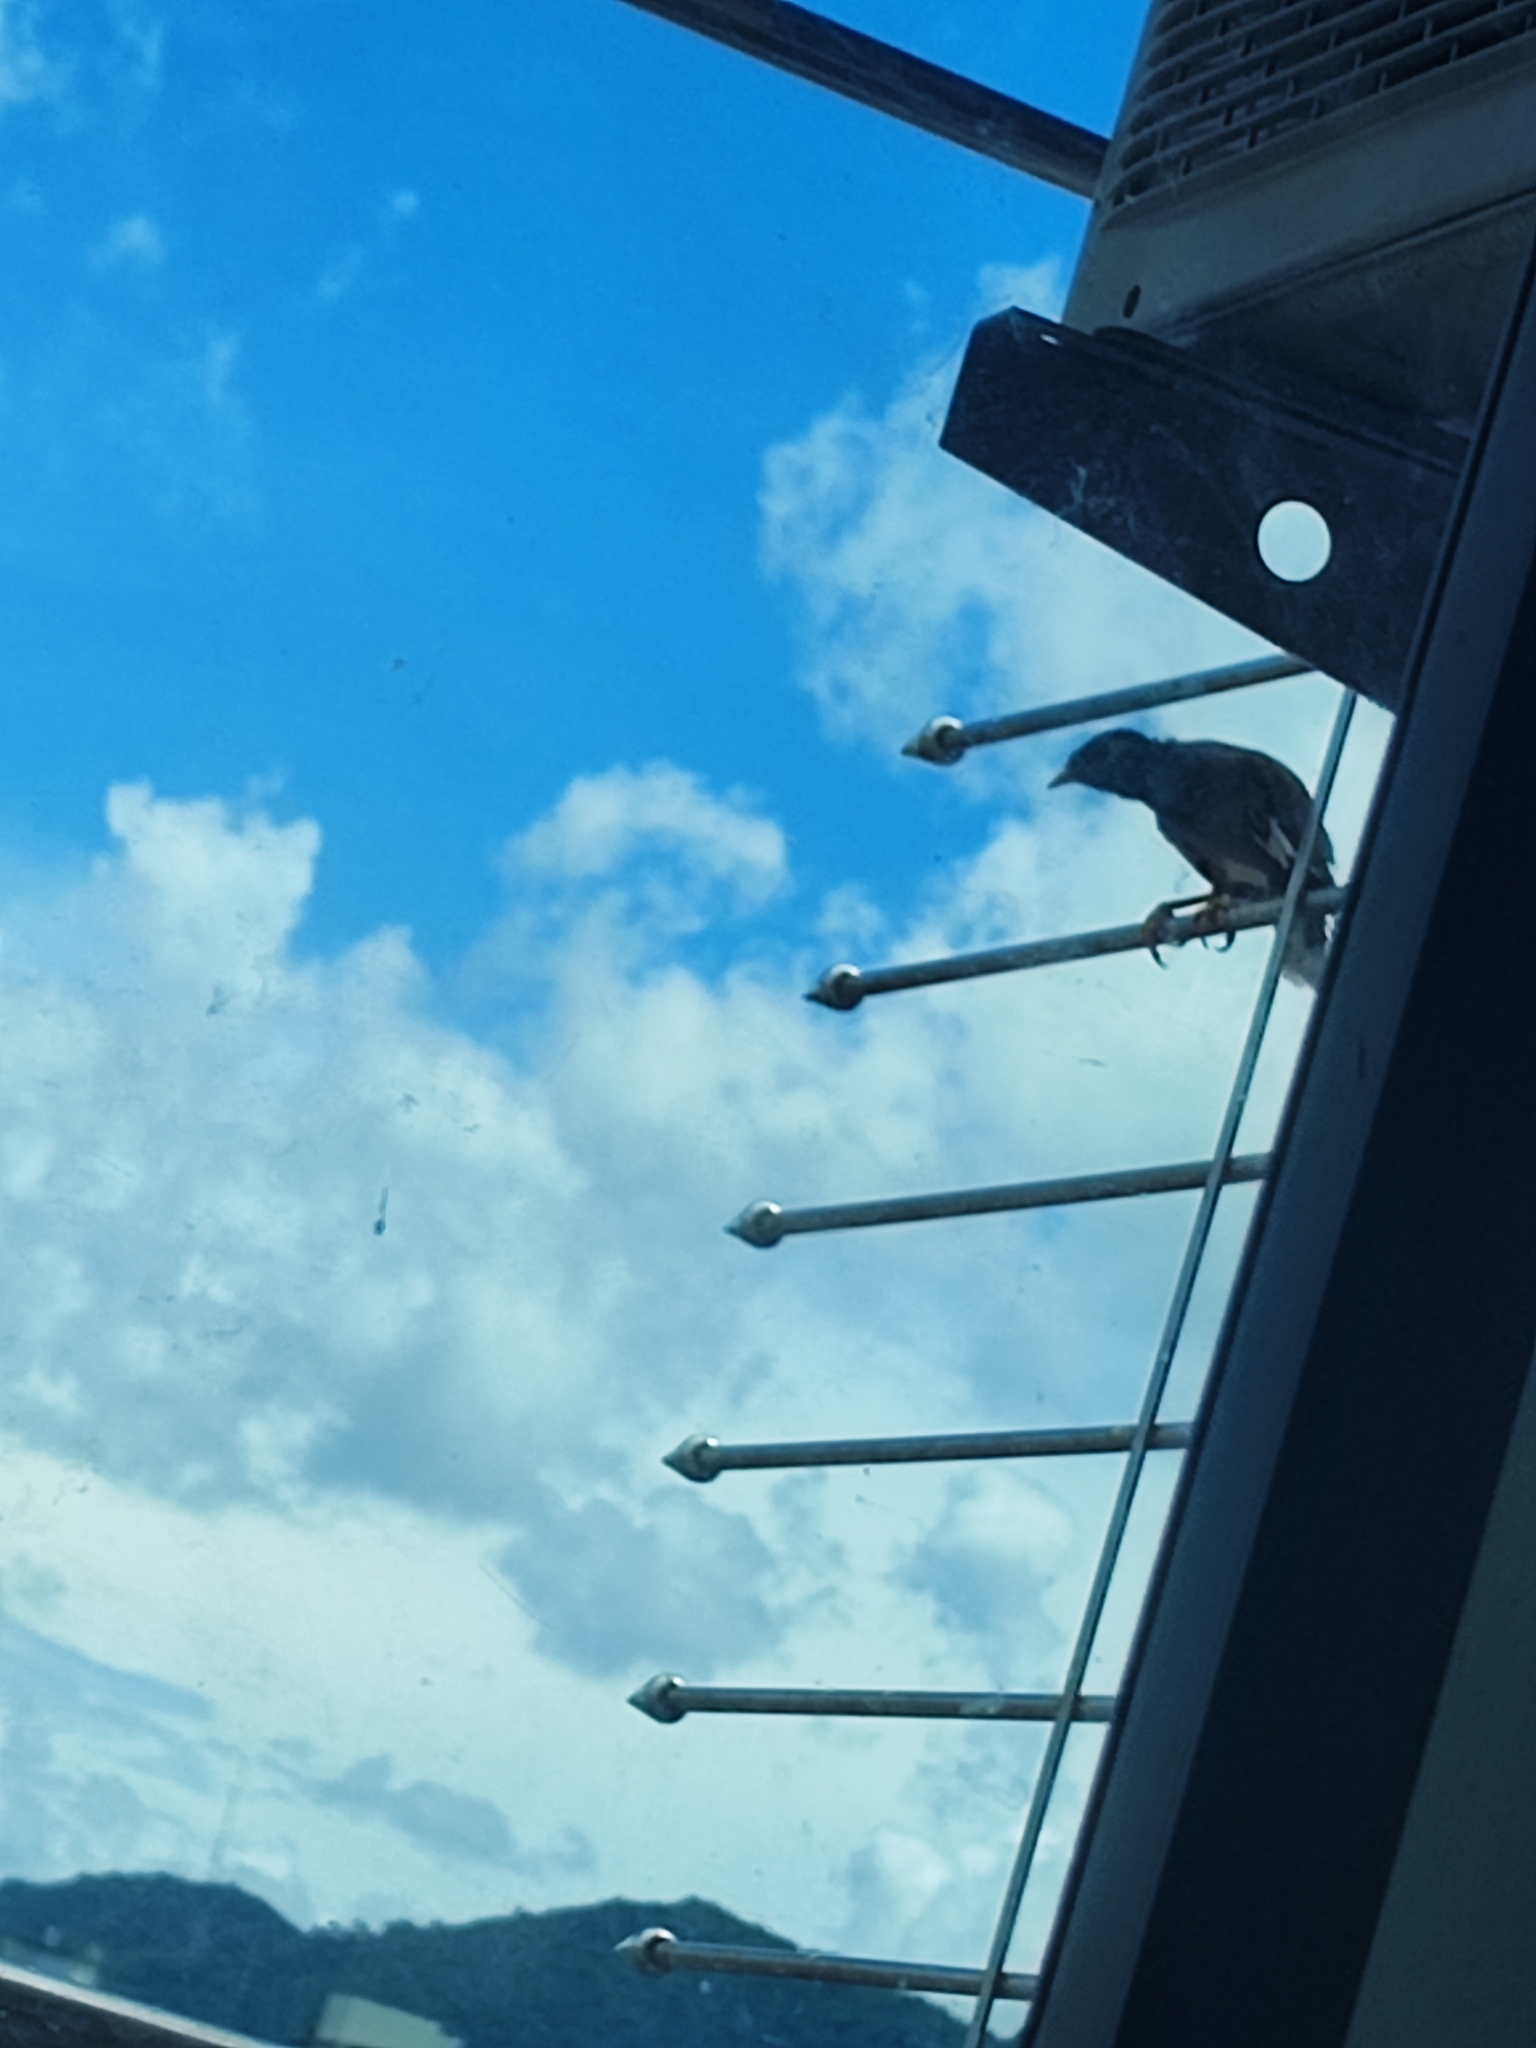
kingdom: Animalia
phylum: Chordata
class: Aves
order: Passeriformes
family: Sturnidae
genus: Acridotheres
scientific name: Acridotheres tristis
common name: Common myna
